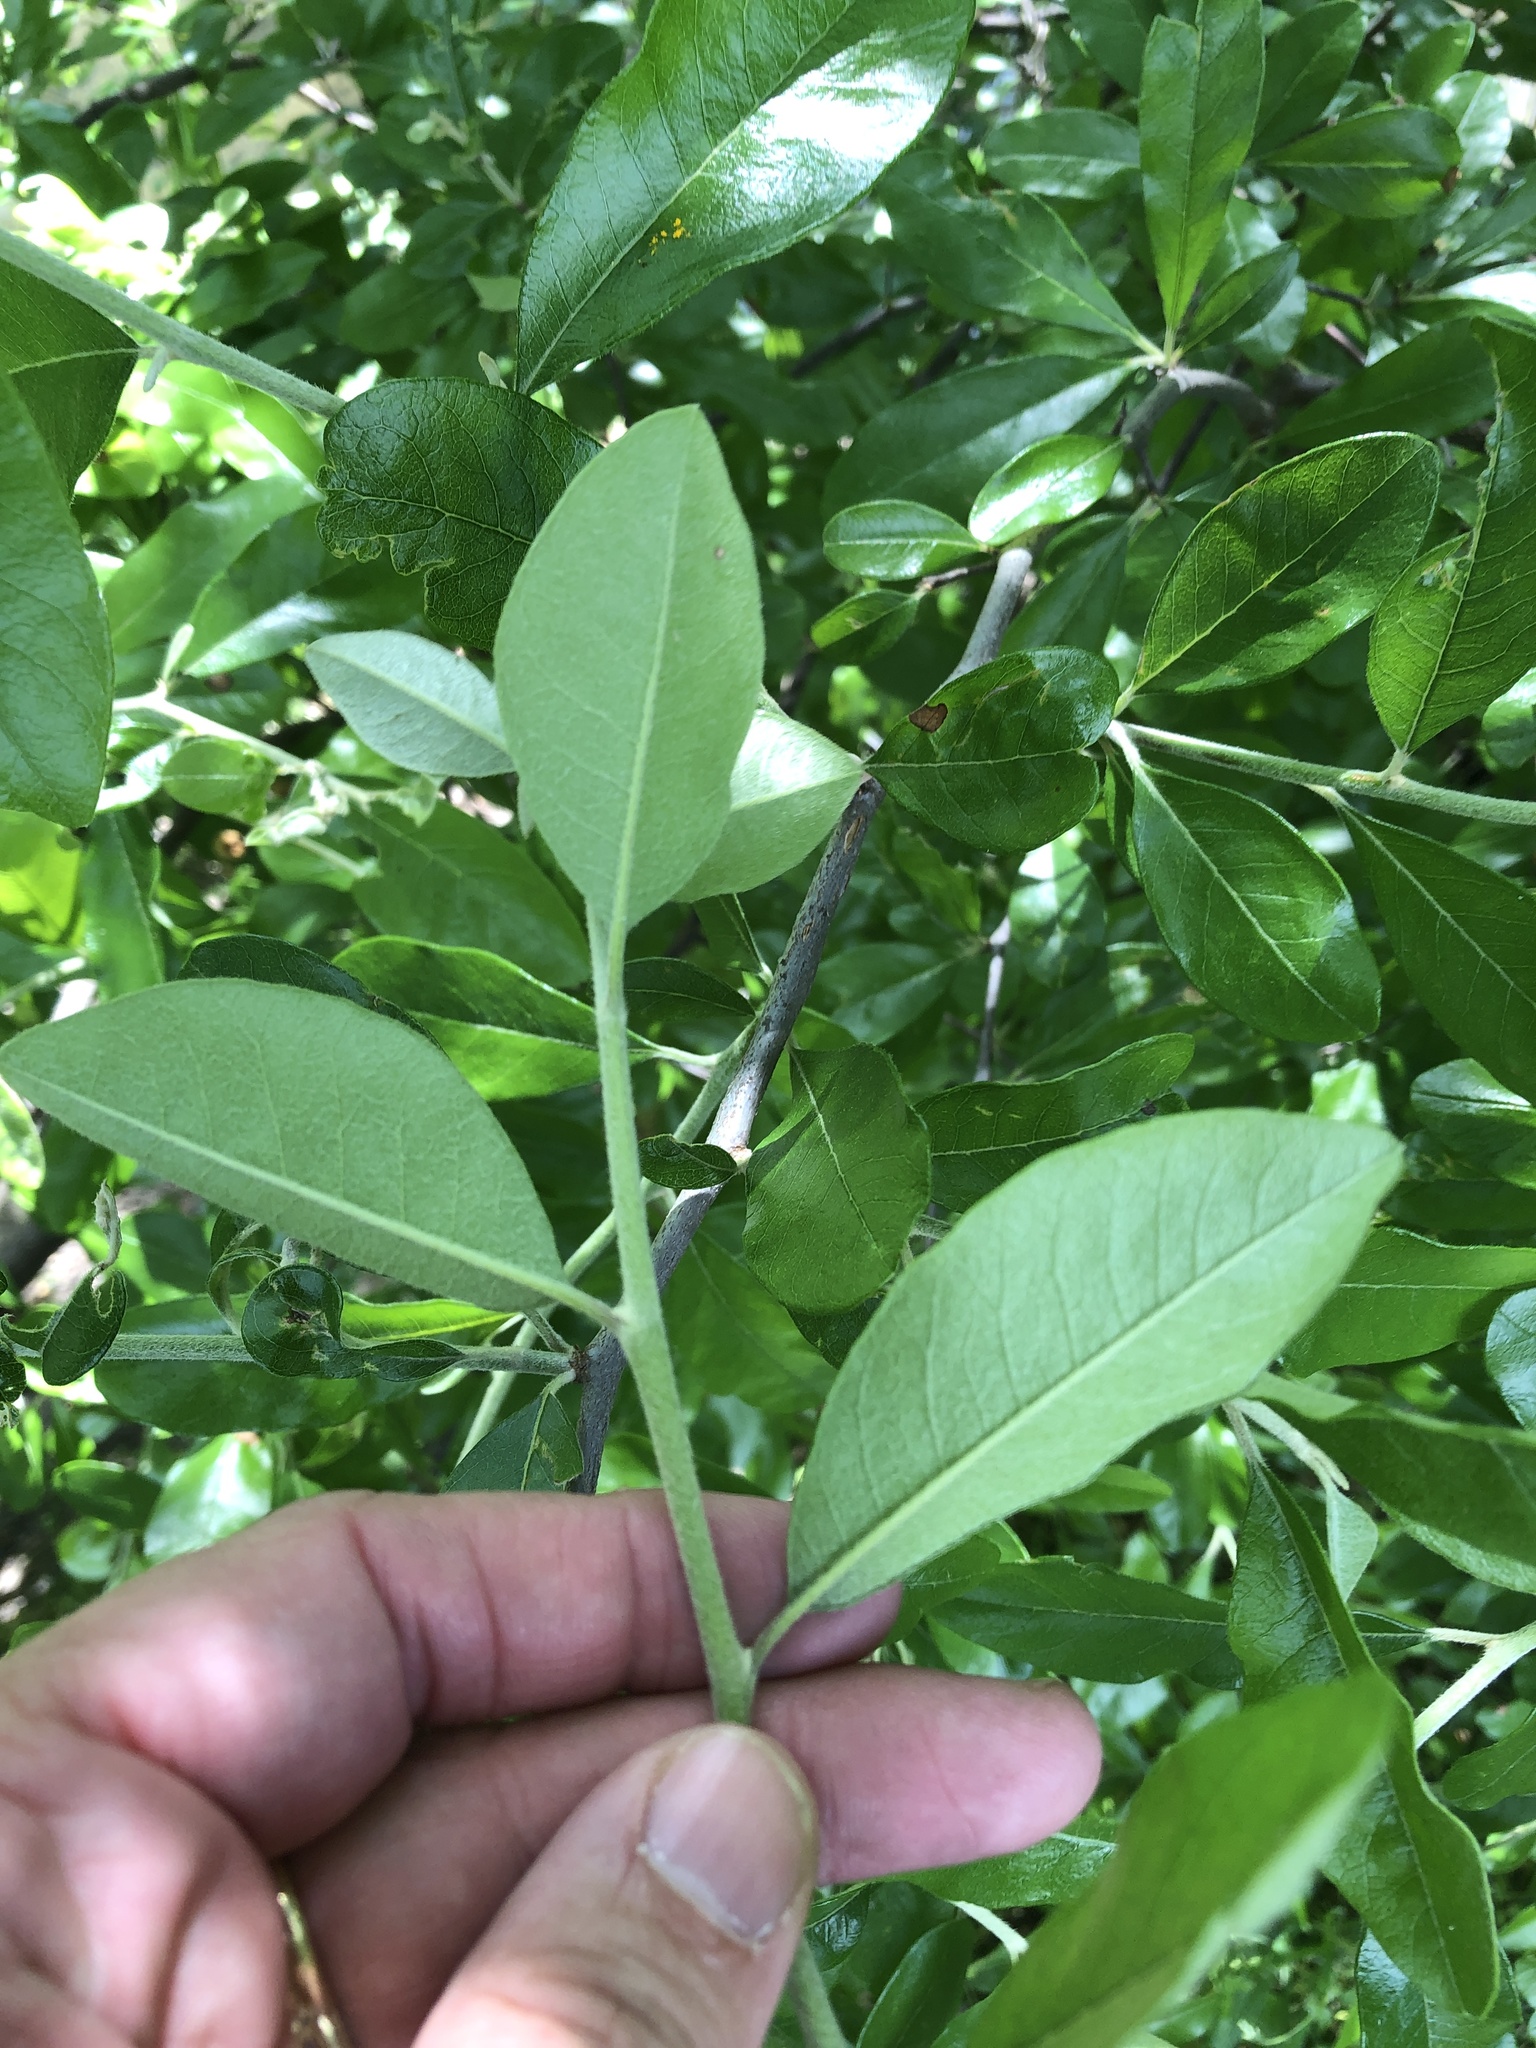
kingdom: Plantae
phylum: Tracheophyta
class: Magnoliopsida
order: Ericales
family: Sapotaceae
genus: Sideroxylon
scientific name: Sideroxylon lanuginosum
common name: Chittamwood
